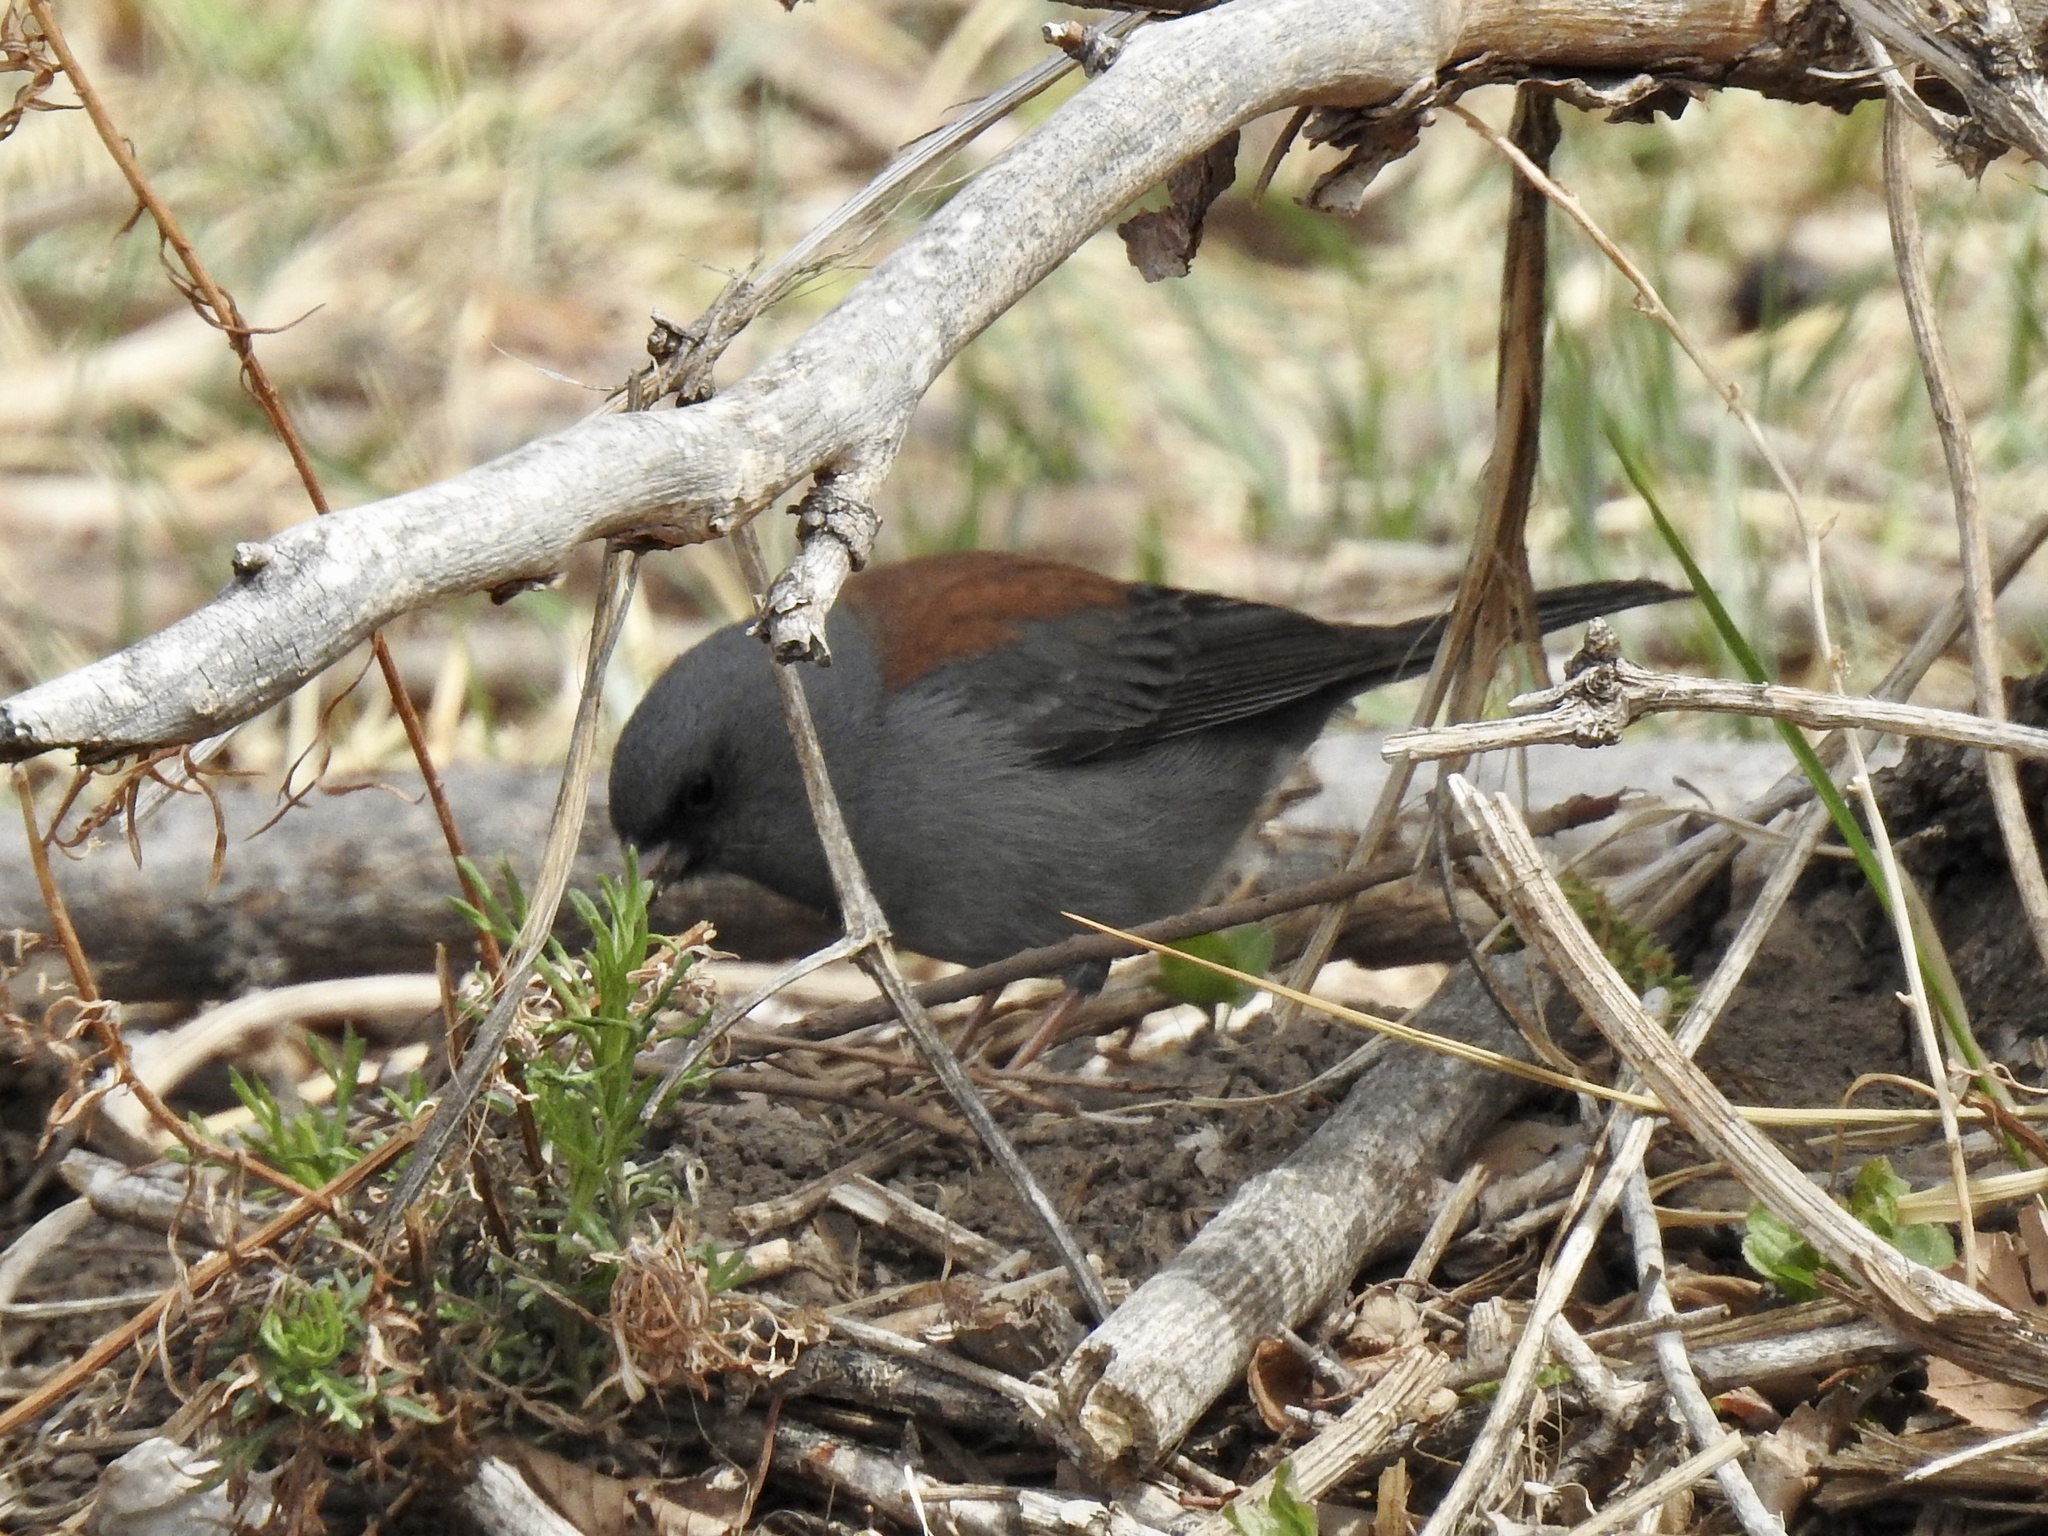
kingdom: Animalia
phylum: Chordata
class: Aves
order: Passeriformes
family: Passerellidae
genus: Junco
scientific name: Junco hyemalis
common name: Dark-eyed junco
